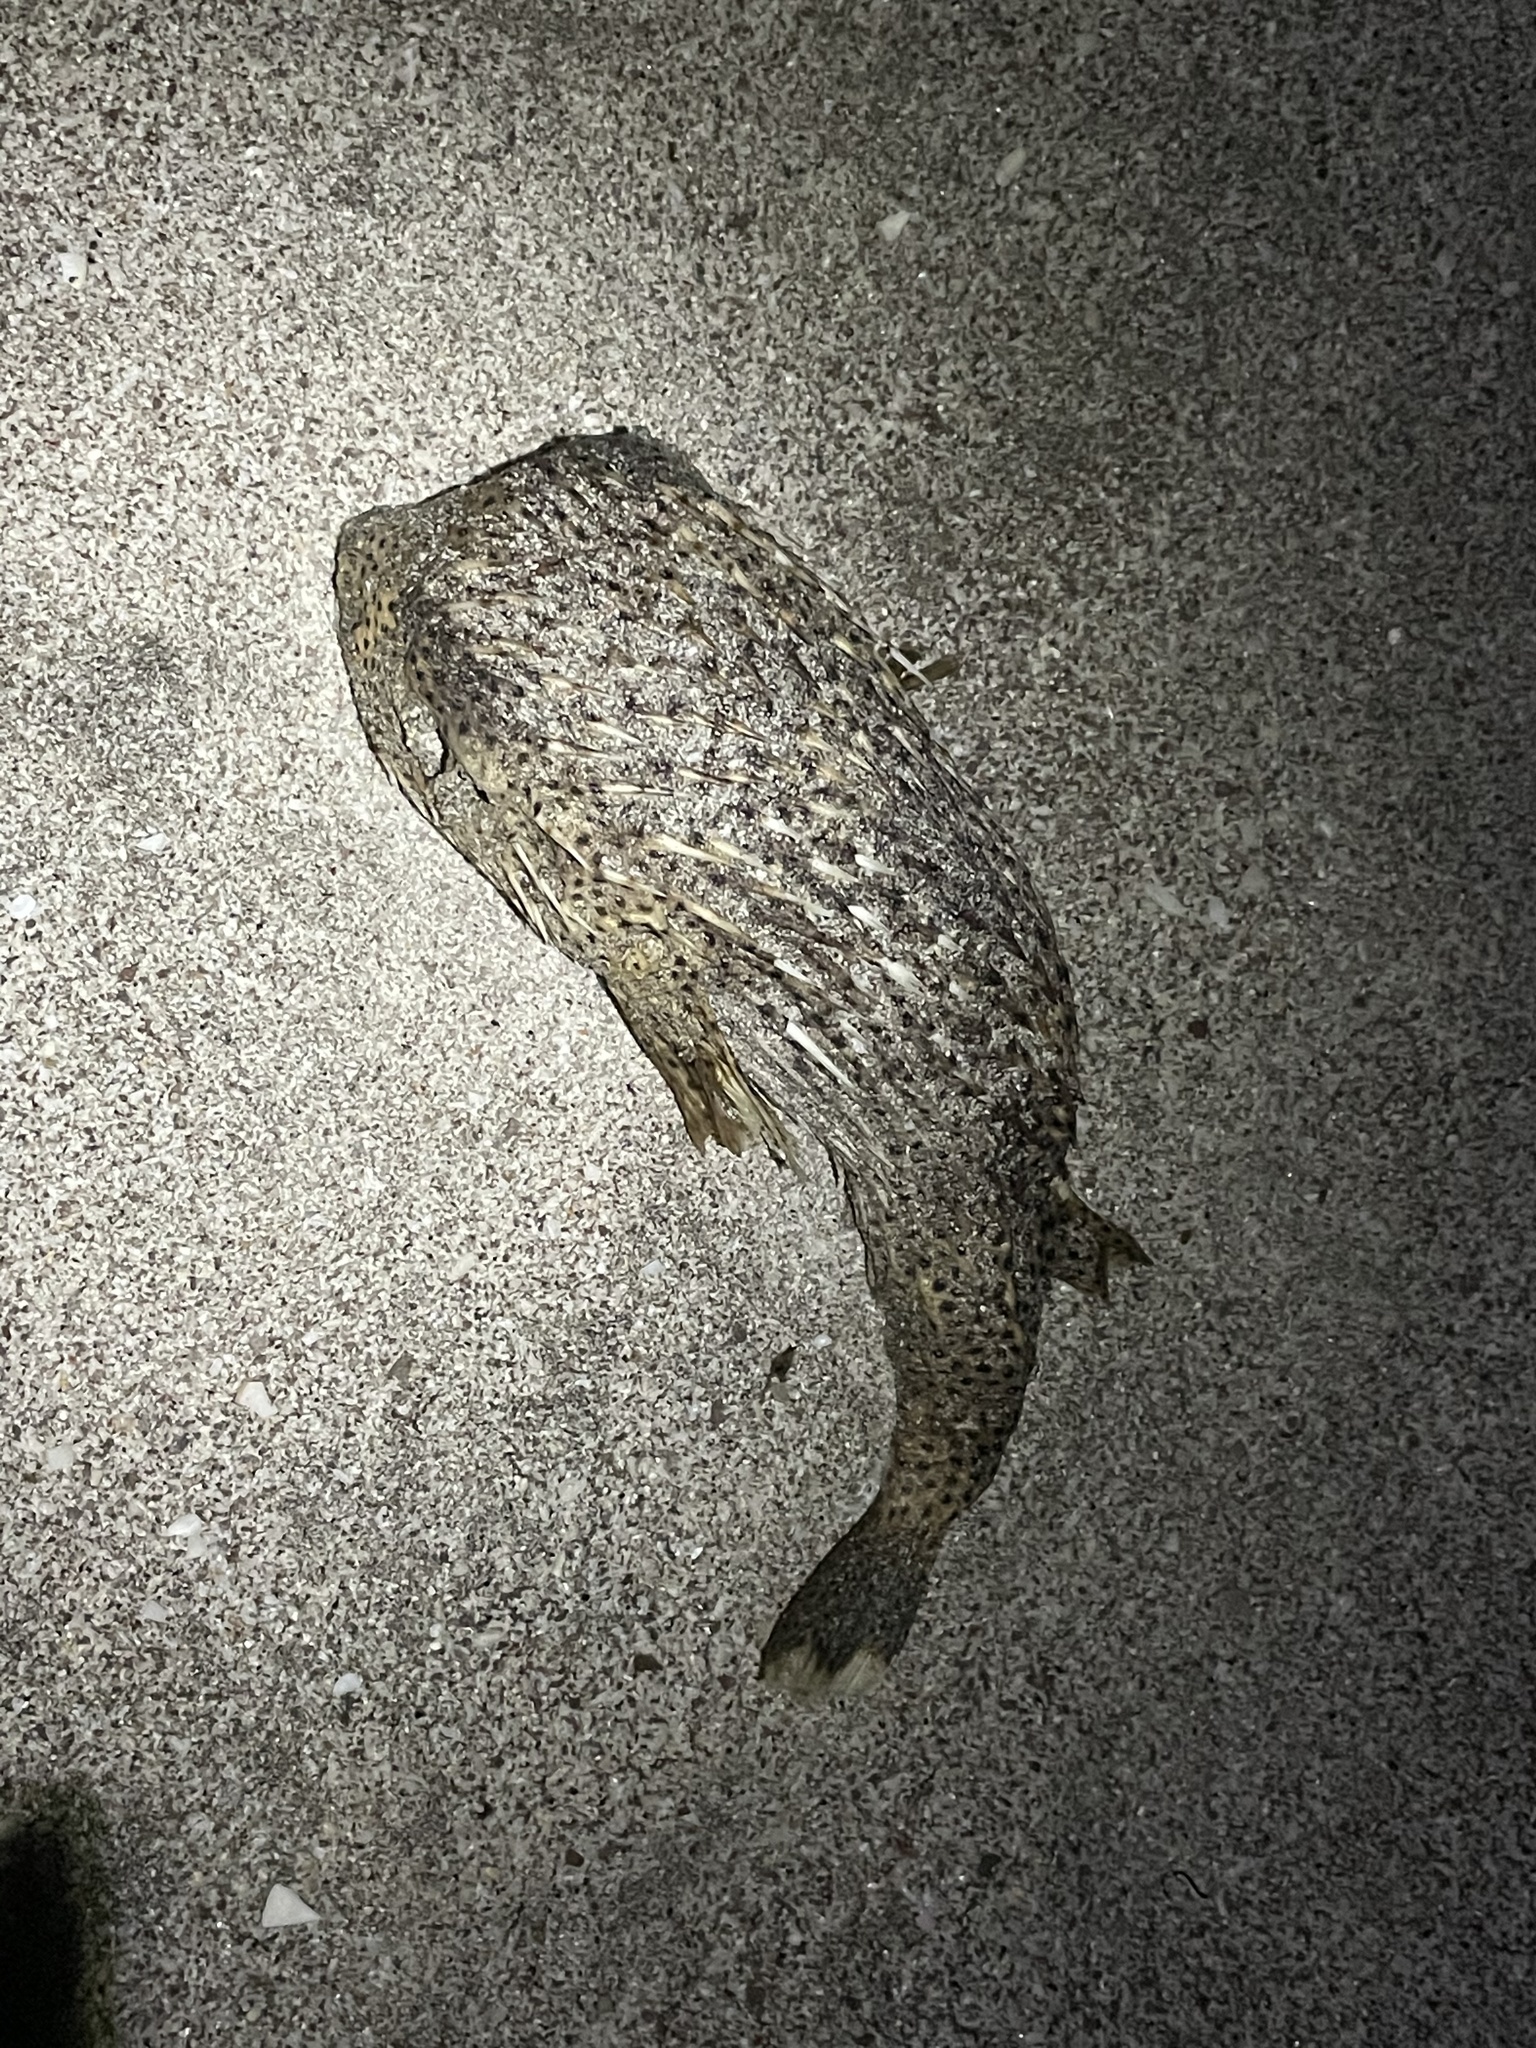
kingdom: Animalia
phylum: Chordata
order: Tetraodontiformes
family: Diodontidae
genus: Diodon
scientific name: Diodon hystrix
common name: Giant porcupinefish
